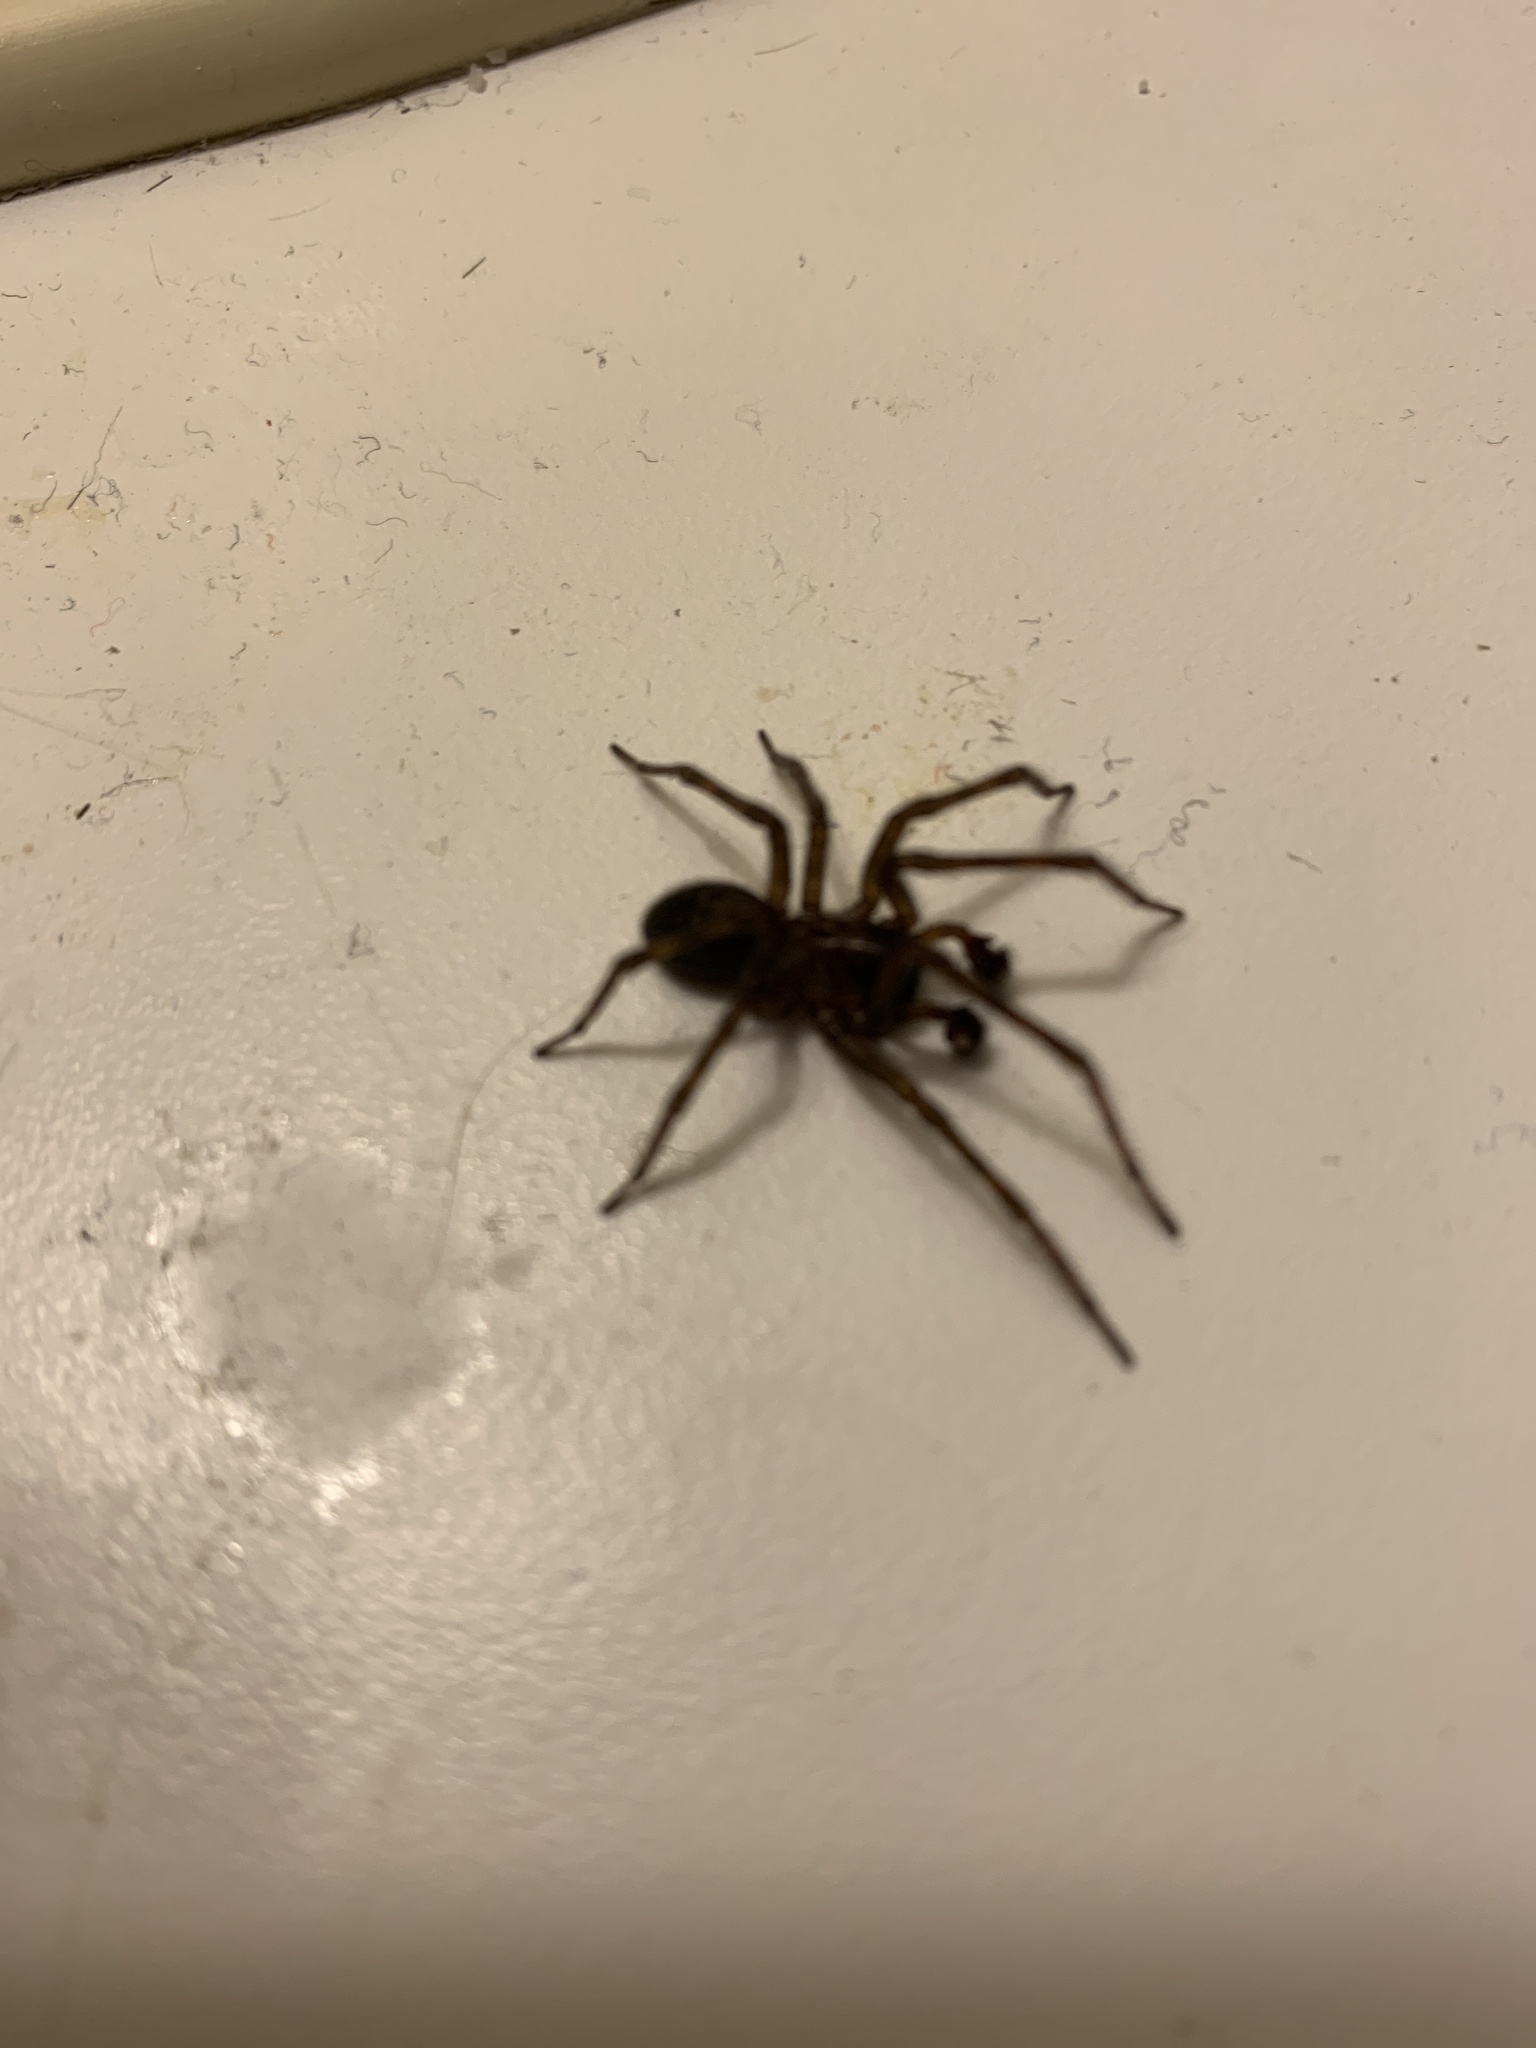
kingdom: Animalia
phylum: Arthropoda
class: Arachnida
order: Araneae
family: Amaurobiidae
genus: Amaurobius
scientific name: Amaurobius ferox
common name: Black laceweaver
